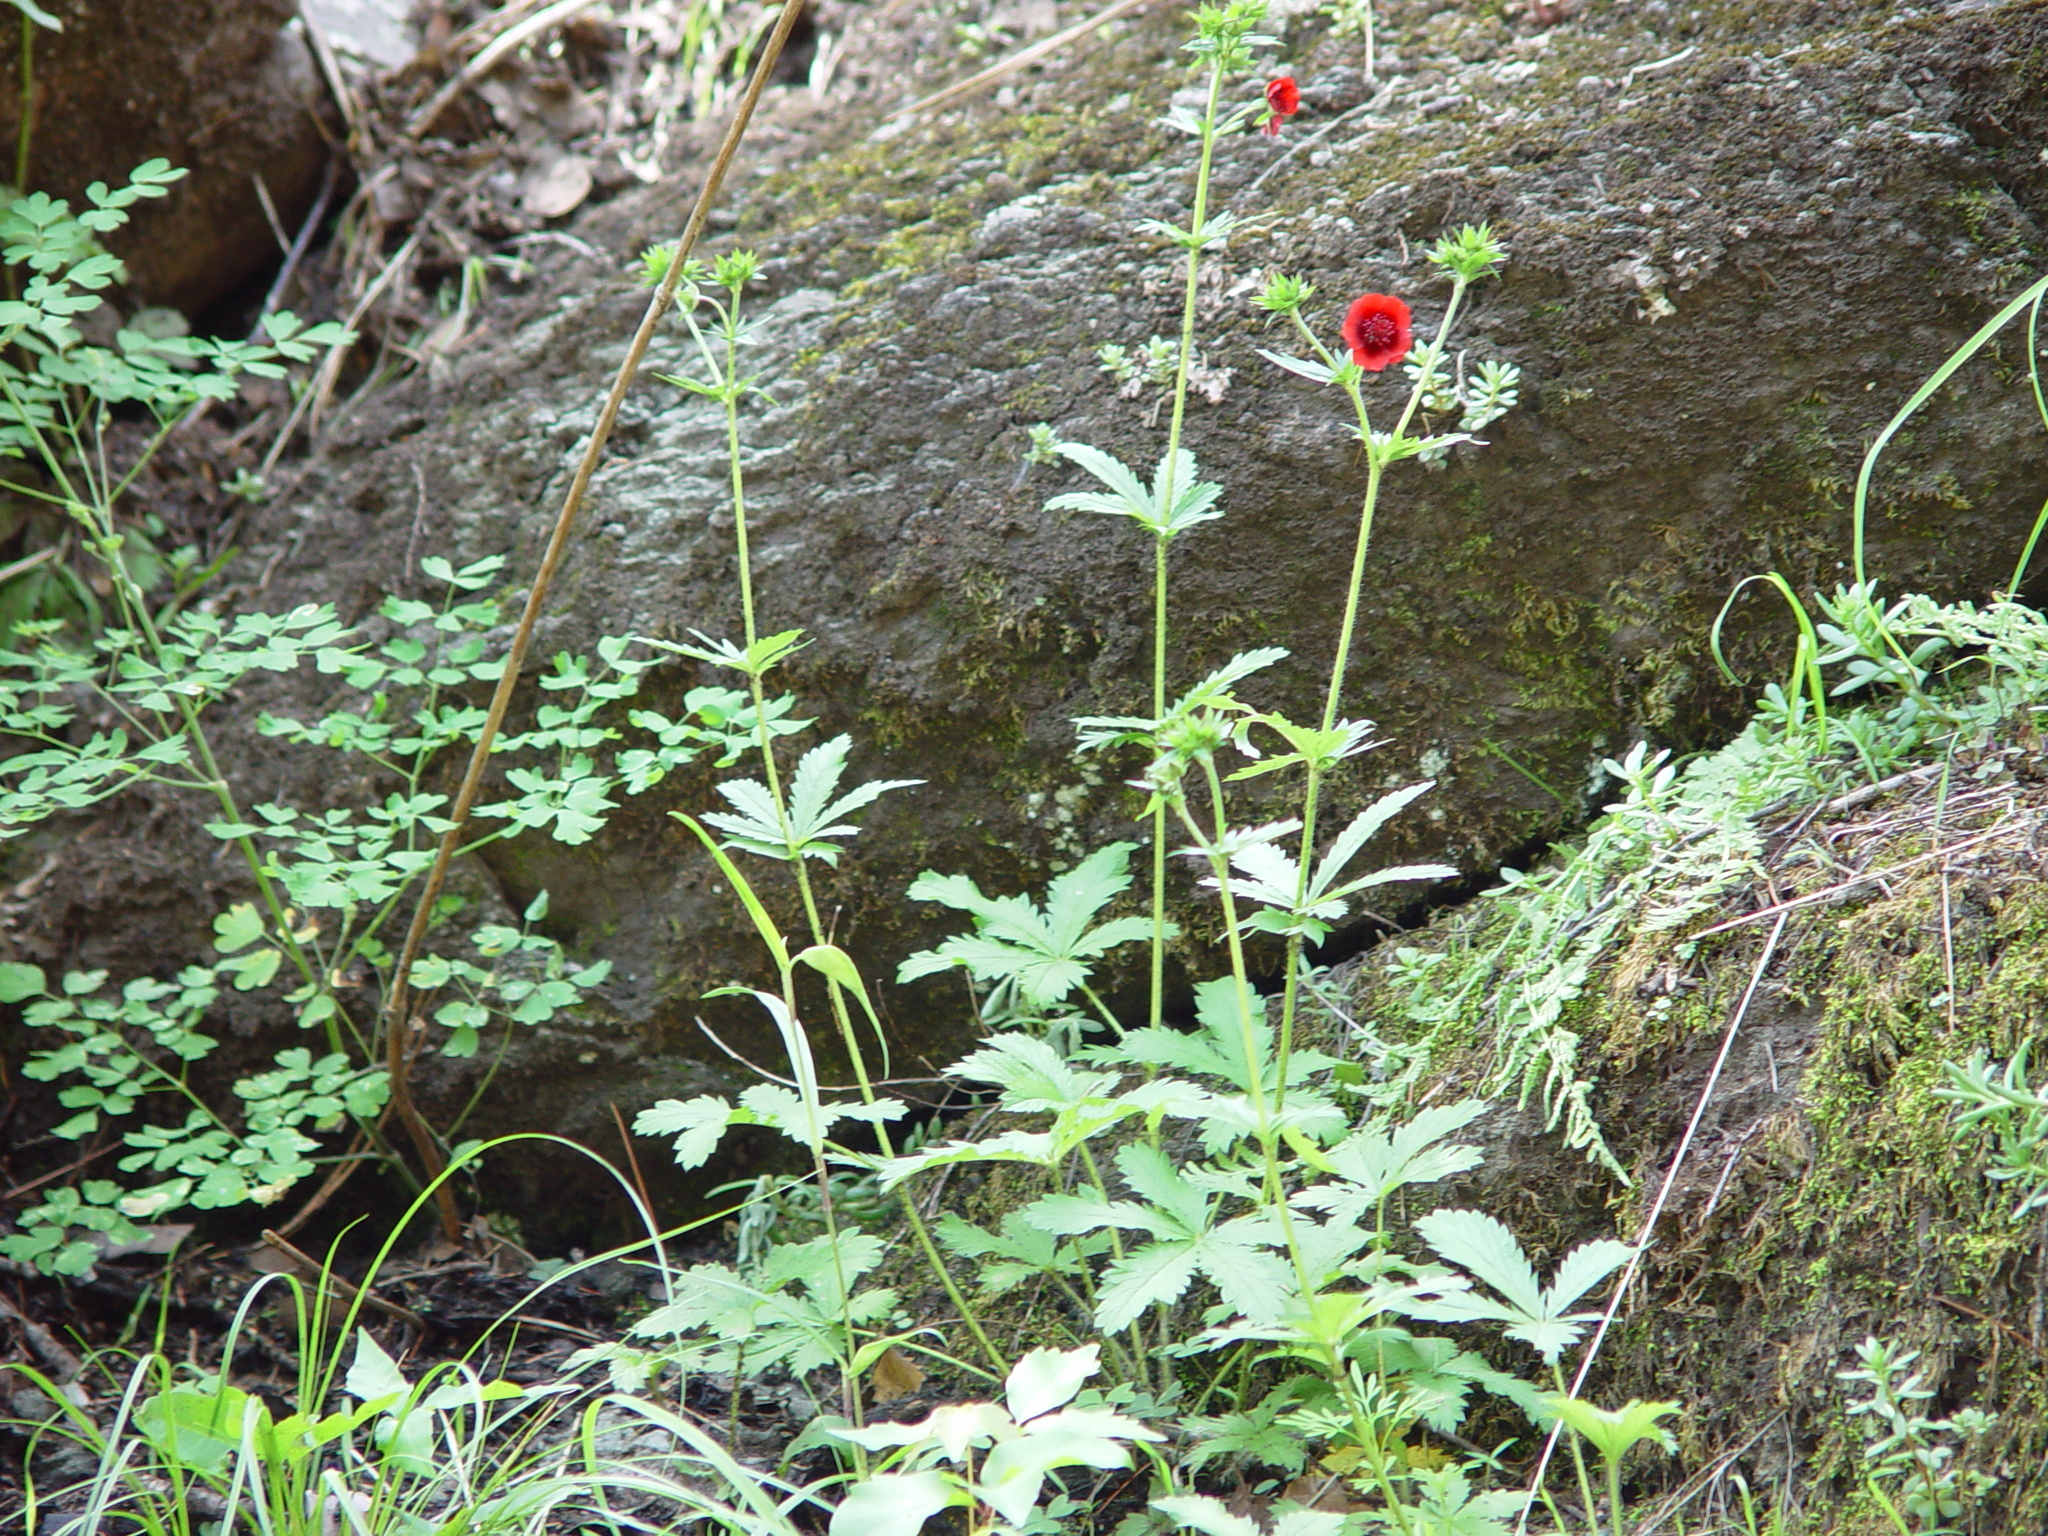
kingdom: Plantae
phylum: Tracheophyta
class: Magnoliopsida
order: Rosales
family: Rosaceae
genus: Potentilla
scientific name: Potentilla thurberi
